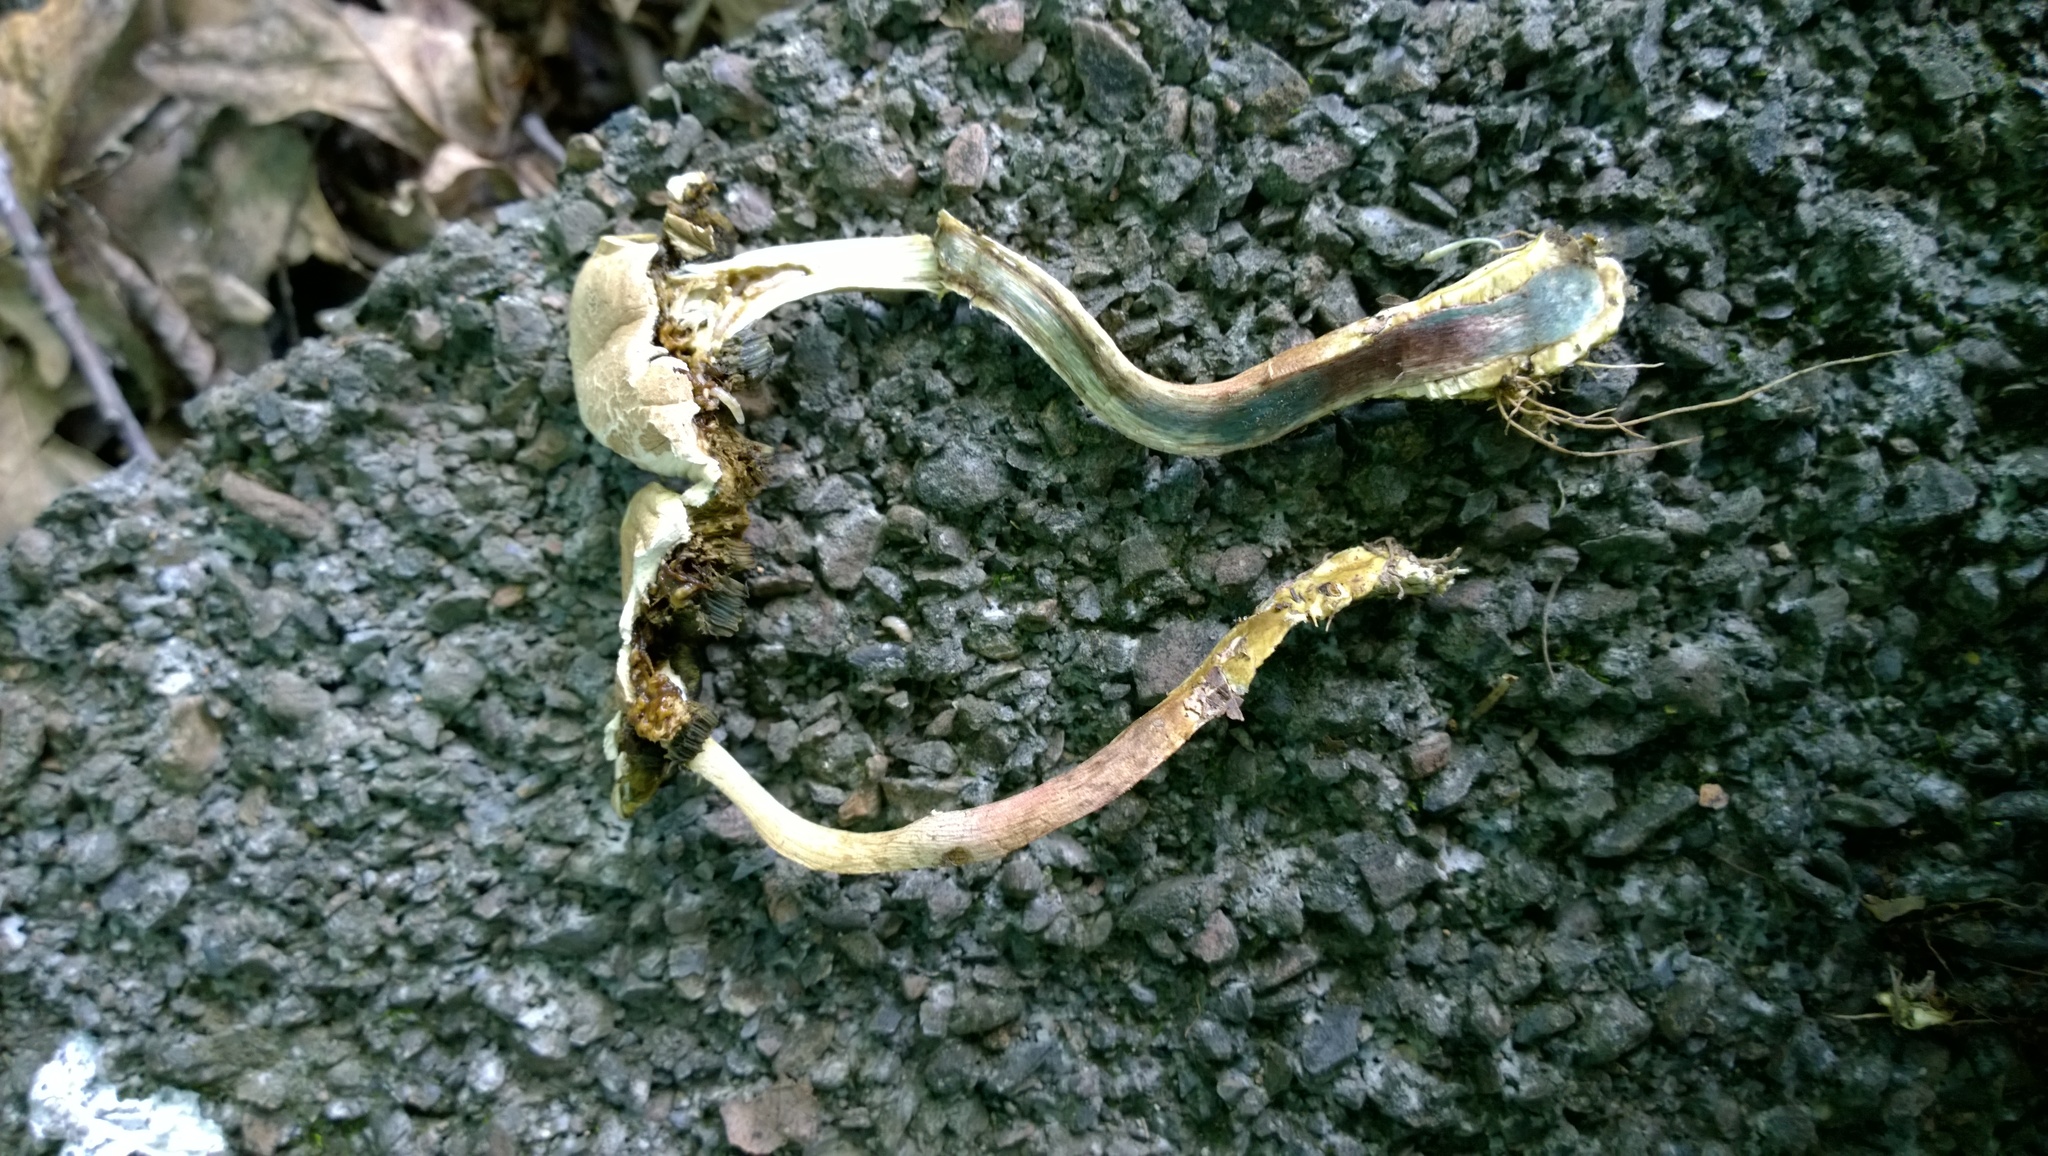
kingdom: Fungi
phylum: Basidiomycota
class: Agaricomycetes
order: Boletales
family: Boletaceae
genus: Caloboletus
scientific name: Caloboletus inedulis
